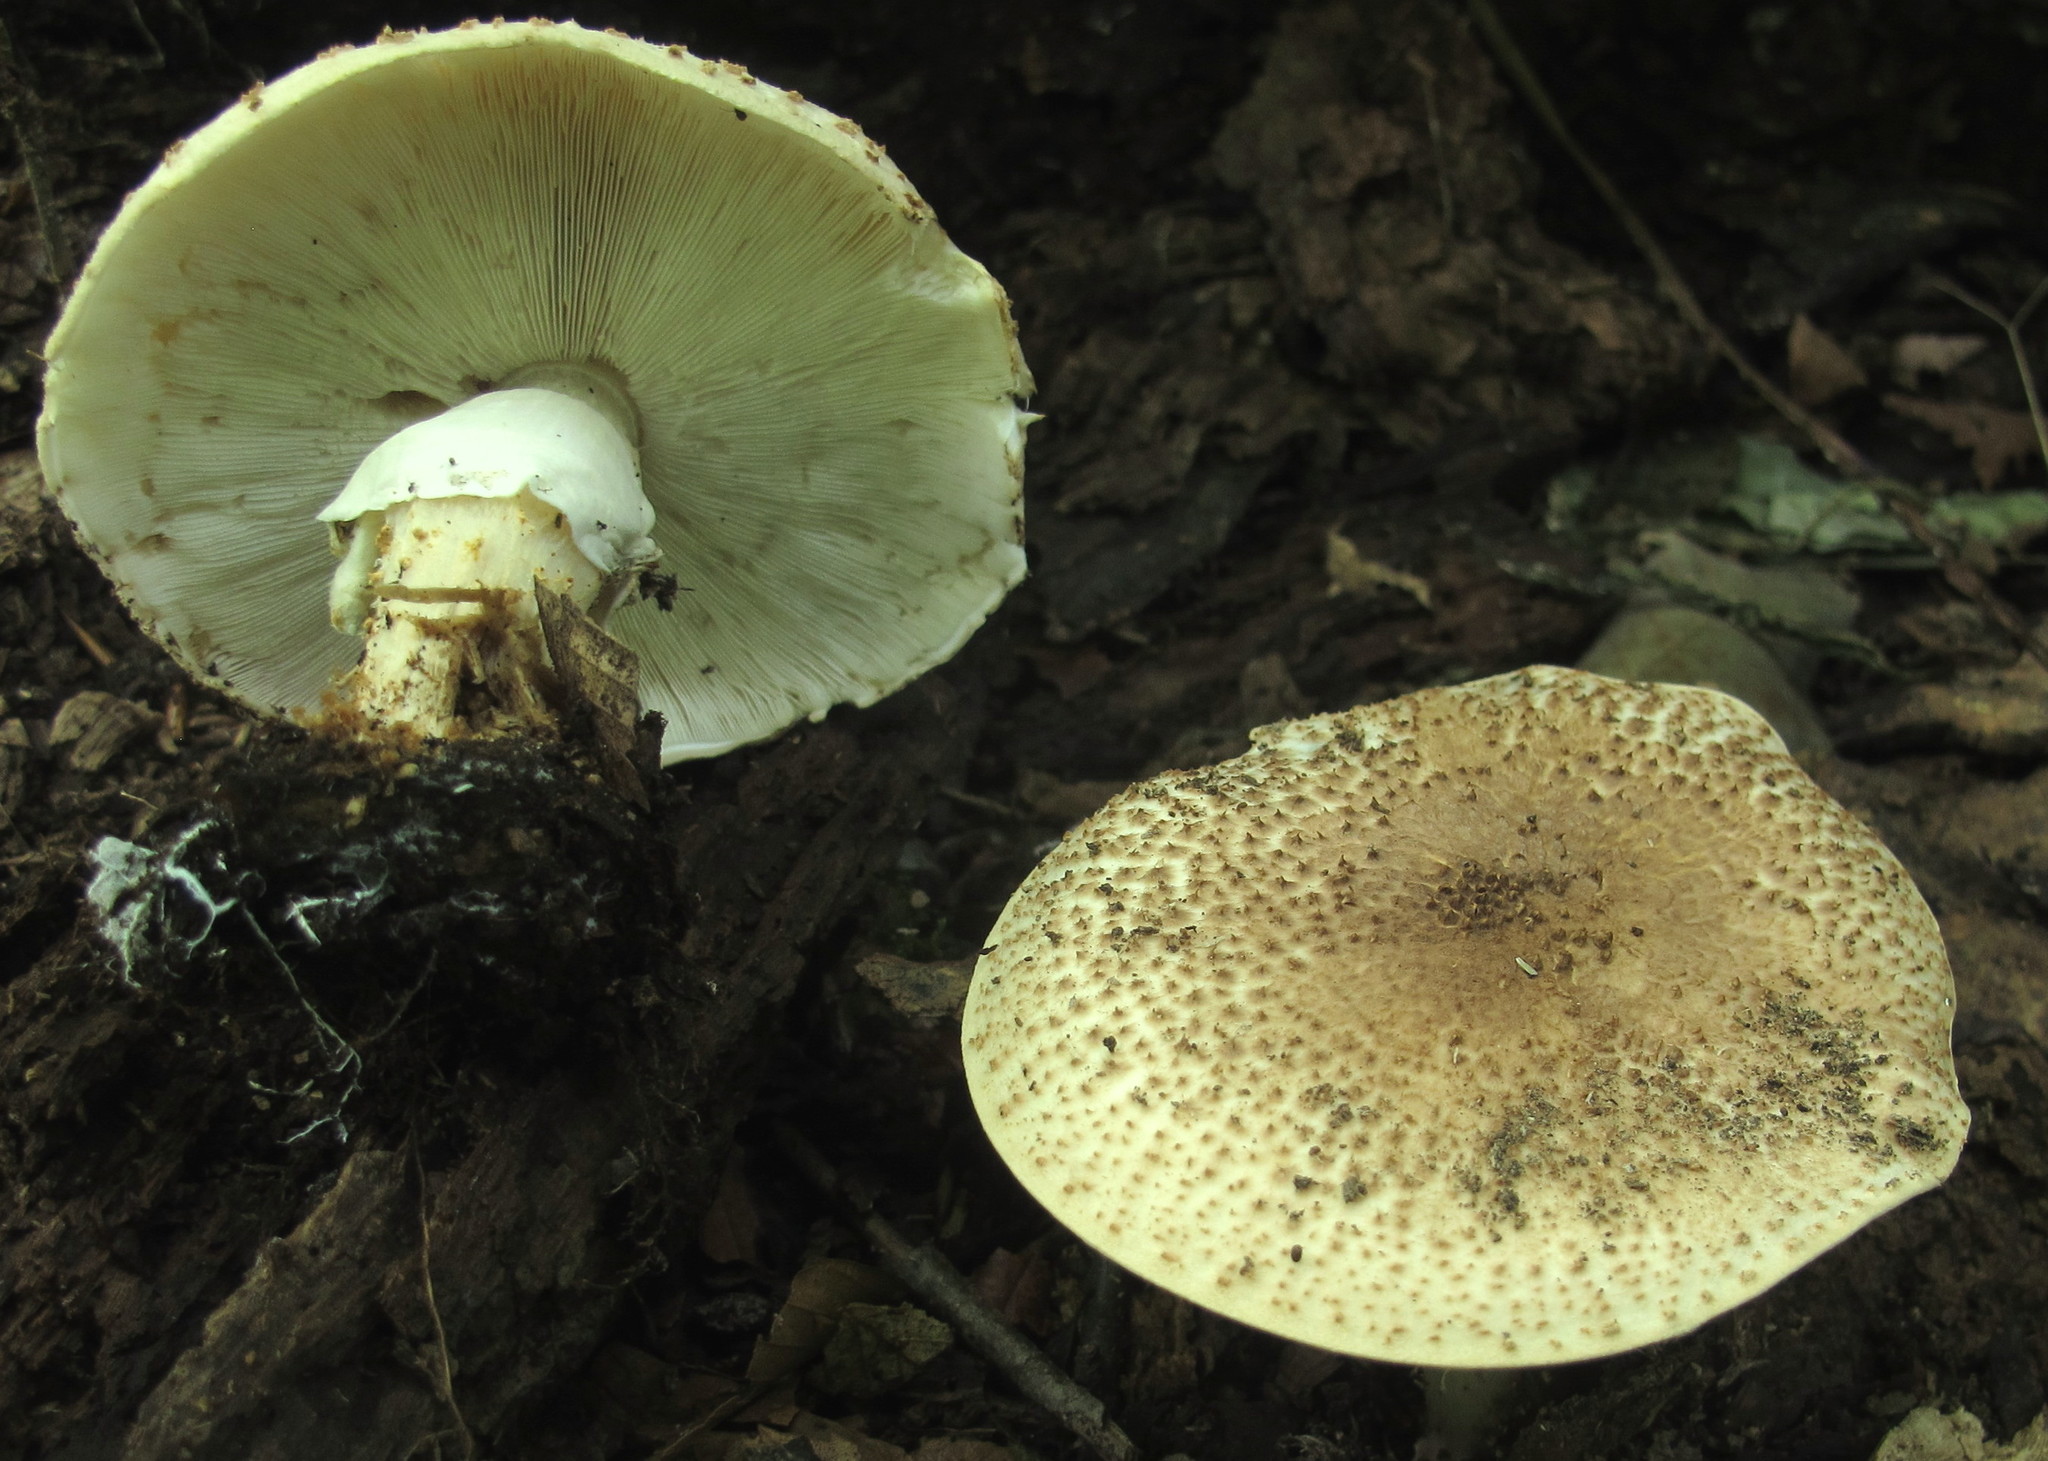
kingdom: Fungi
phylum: Basidiomycota
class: Agaricomycetes
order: Agaricales
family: Agaricaceae
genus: Echinoderma
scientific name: Echinoderma asperum
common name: Freckled dapperling
